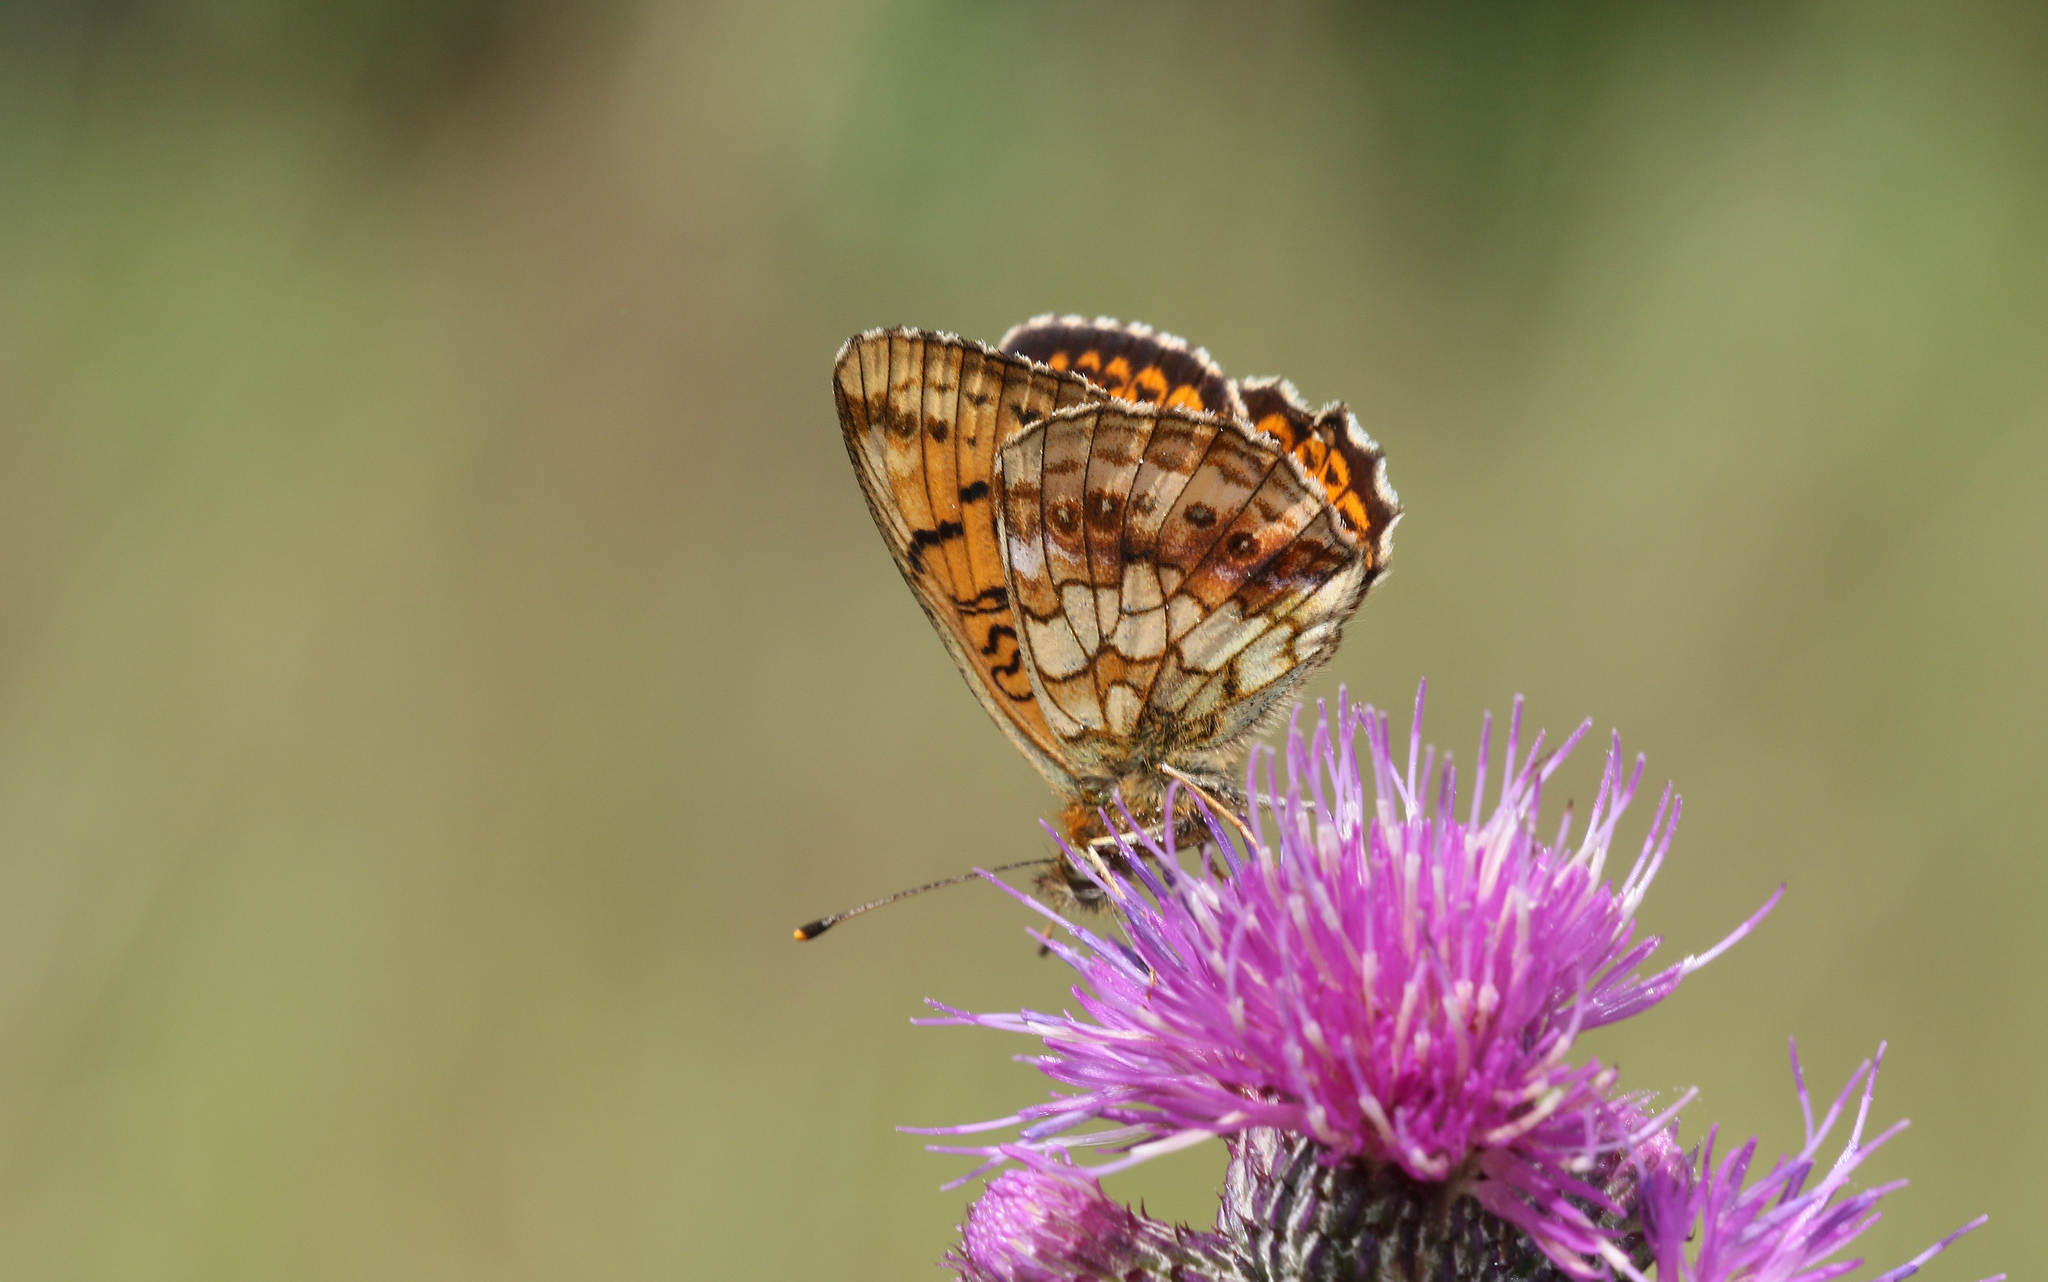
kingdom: Animalia
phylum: Arthropoda
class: Insecta
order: Lepidoptera
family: Nymphalidae
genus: Brenthis
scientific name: Brenthis ino
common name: Lesser marbled fritillary
